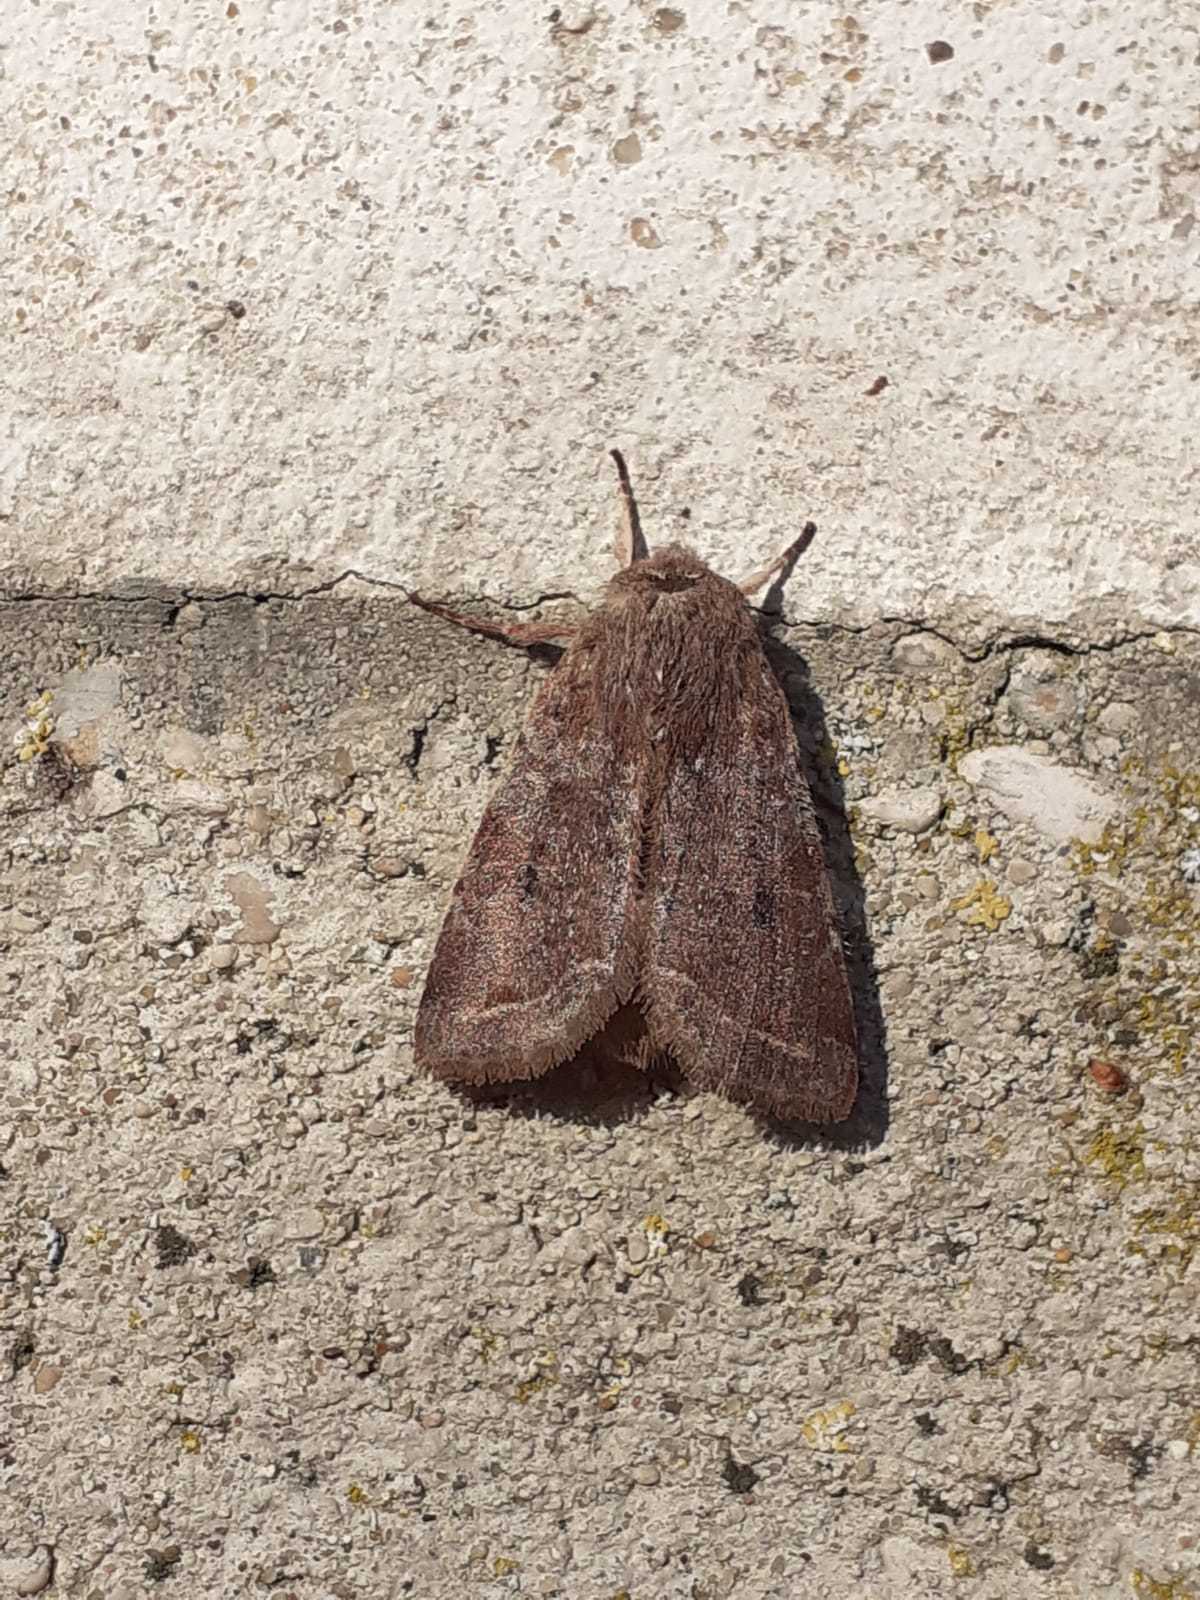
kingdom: Animalia
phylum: Arthropoda
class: Insecta
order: Lepidoptera
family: Noctuidae
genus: Orthosia
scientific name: Orthosia incerta
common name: Clouded drab
